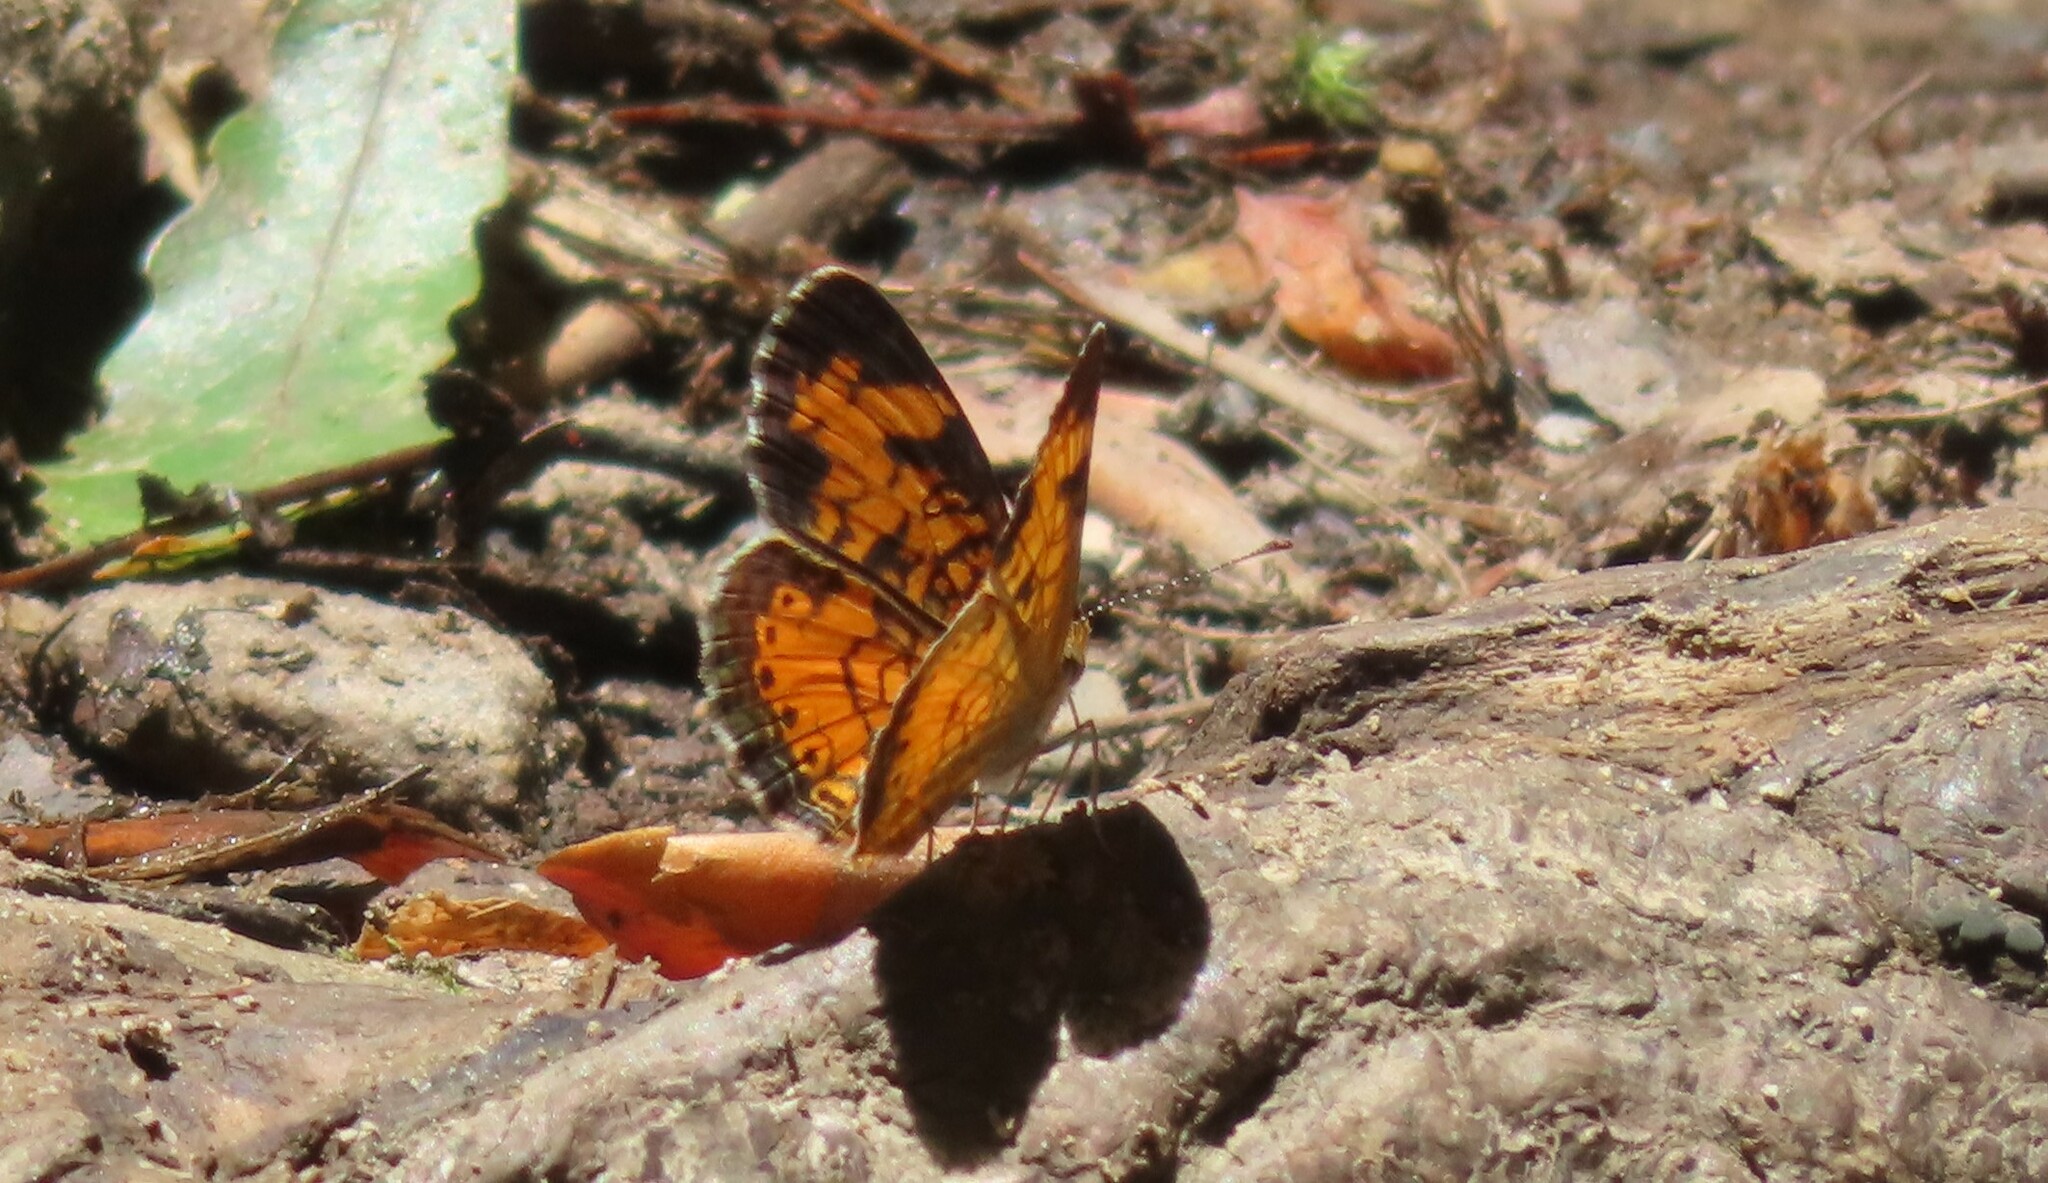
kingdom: Animalia
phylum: Arthropoda
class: Insecta
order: Lepidoptera
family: Nymphalidae
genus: Phyciodes
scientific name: Phyciodes tharos
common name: Pearl crescent
